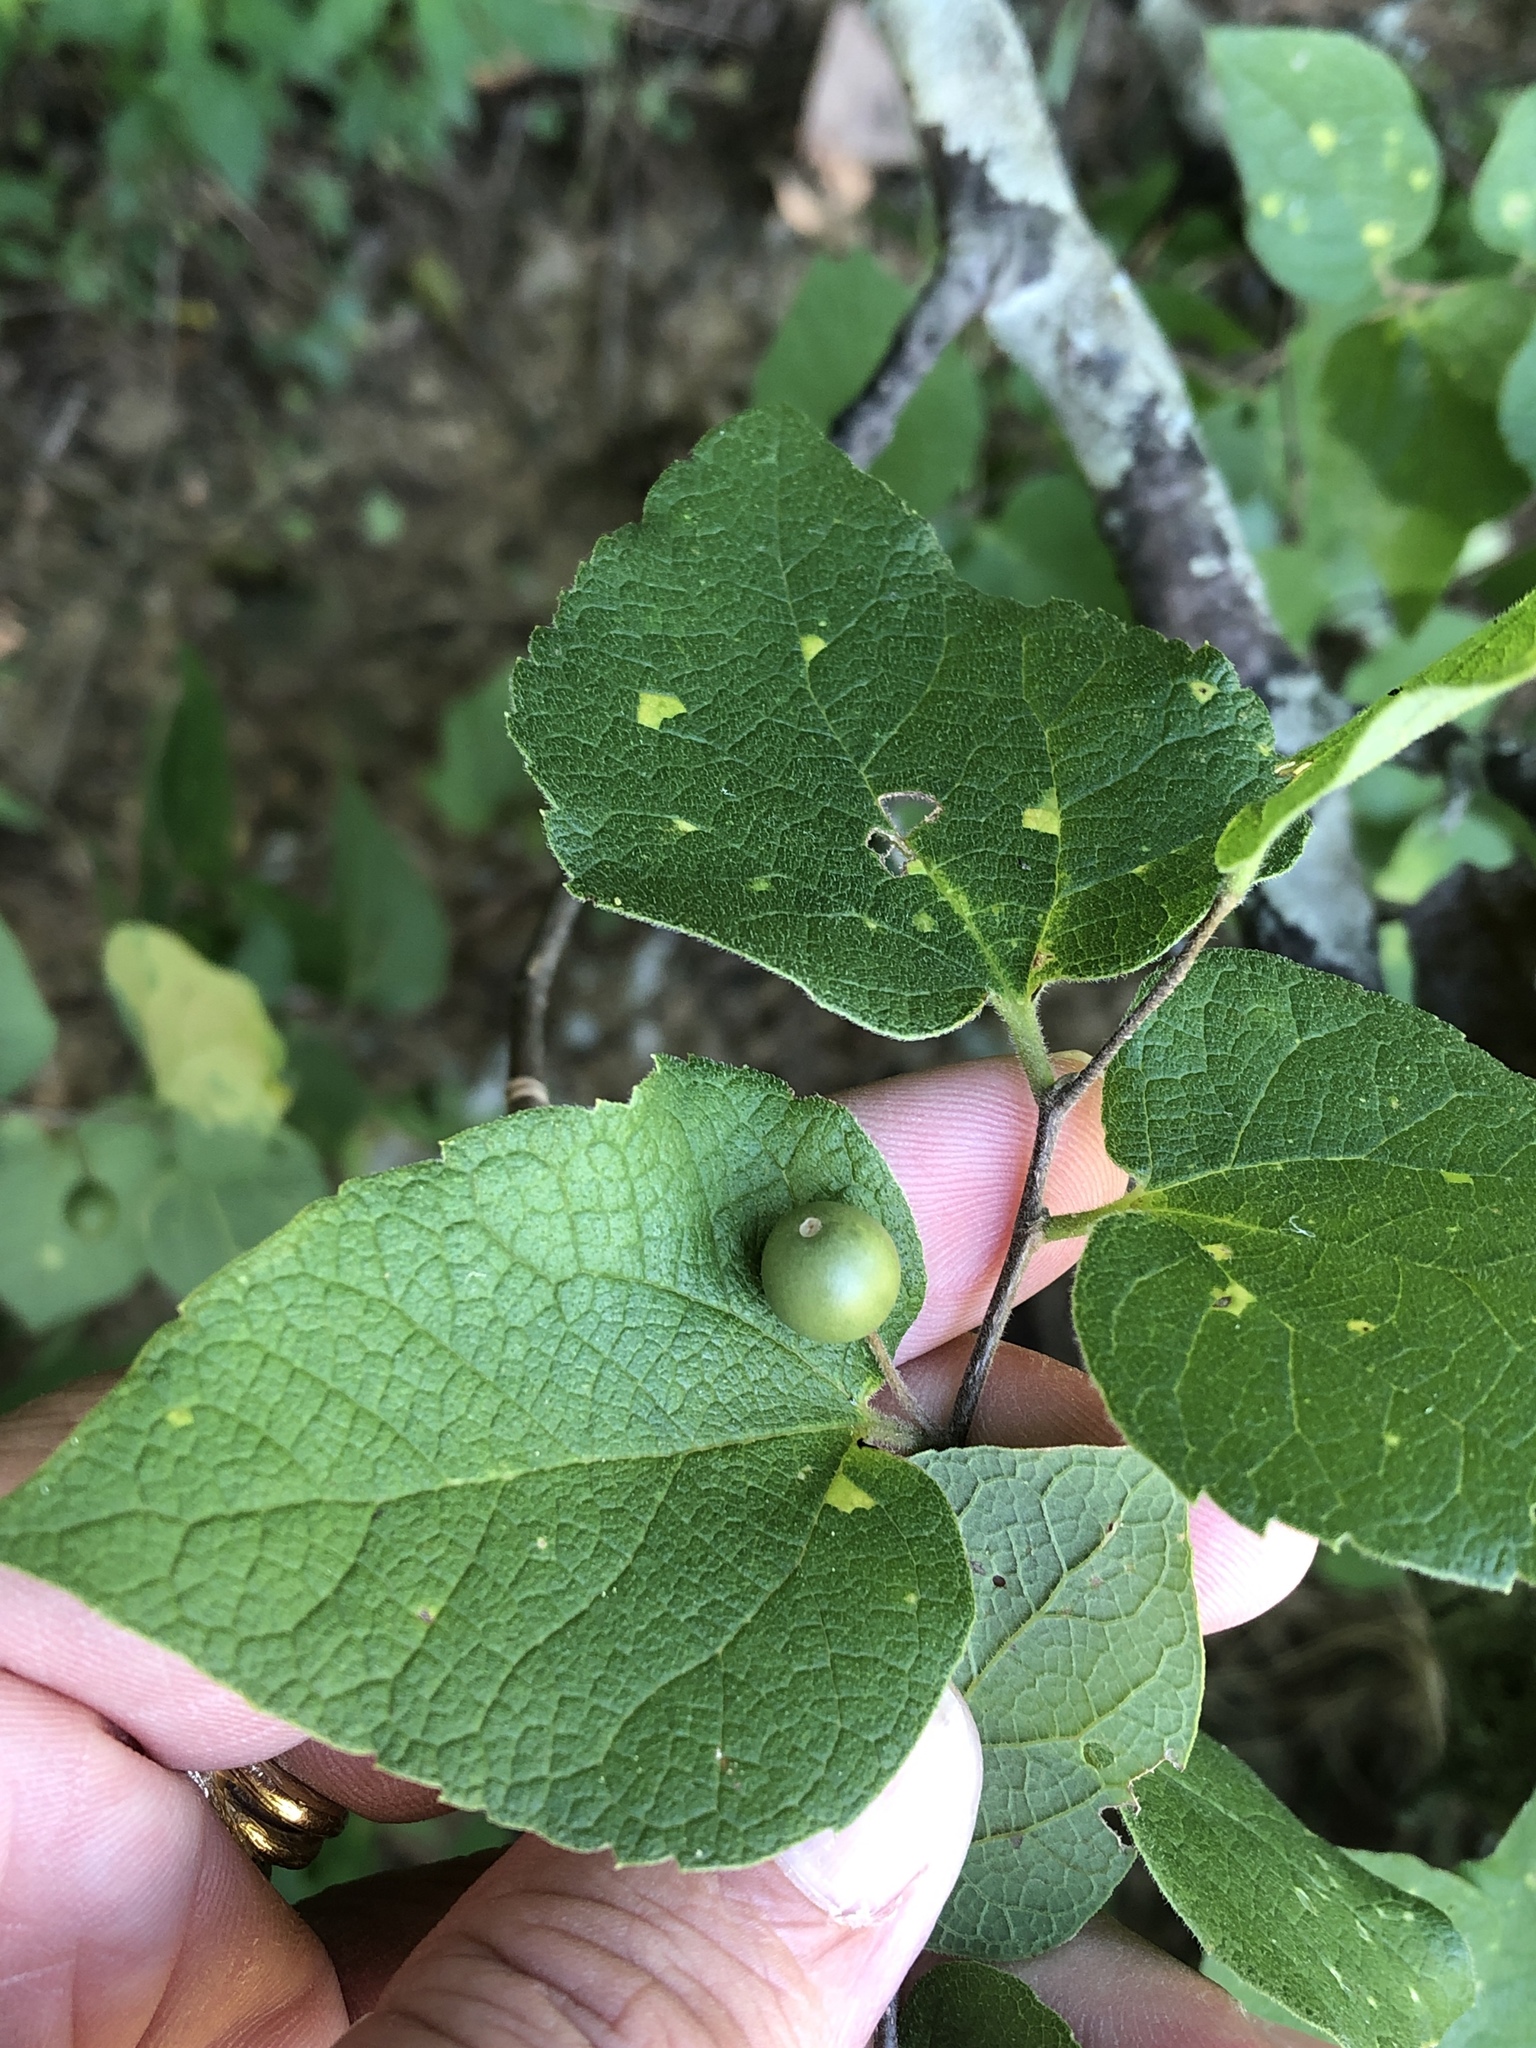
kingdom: Plantae
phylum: Tracheophyta
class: Magnoliopsida
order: Rosales
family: Cannabaceae
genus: Celtis
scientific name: Celtis reticulata
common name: Netleaf hackberry
